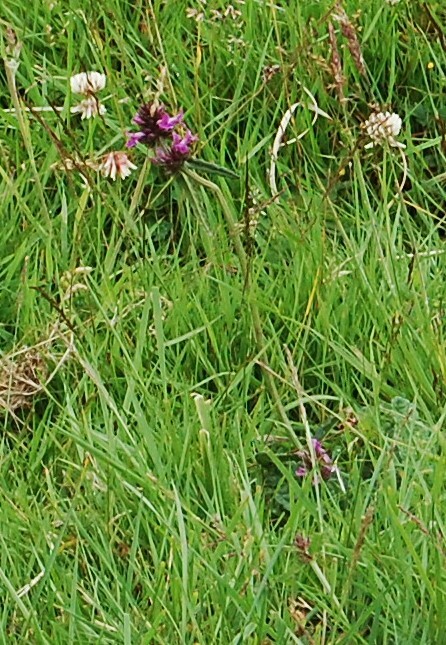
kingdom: Plantae
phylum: Tracheophyta
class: Magnoliopsida
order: Lamiales
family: Lamiaceae
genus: Betonica
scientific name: Betonica officinalis
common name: Bishop's-wort
